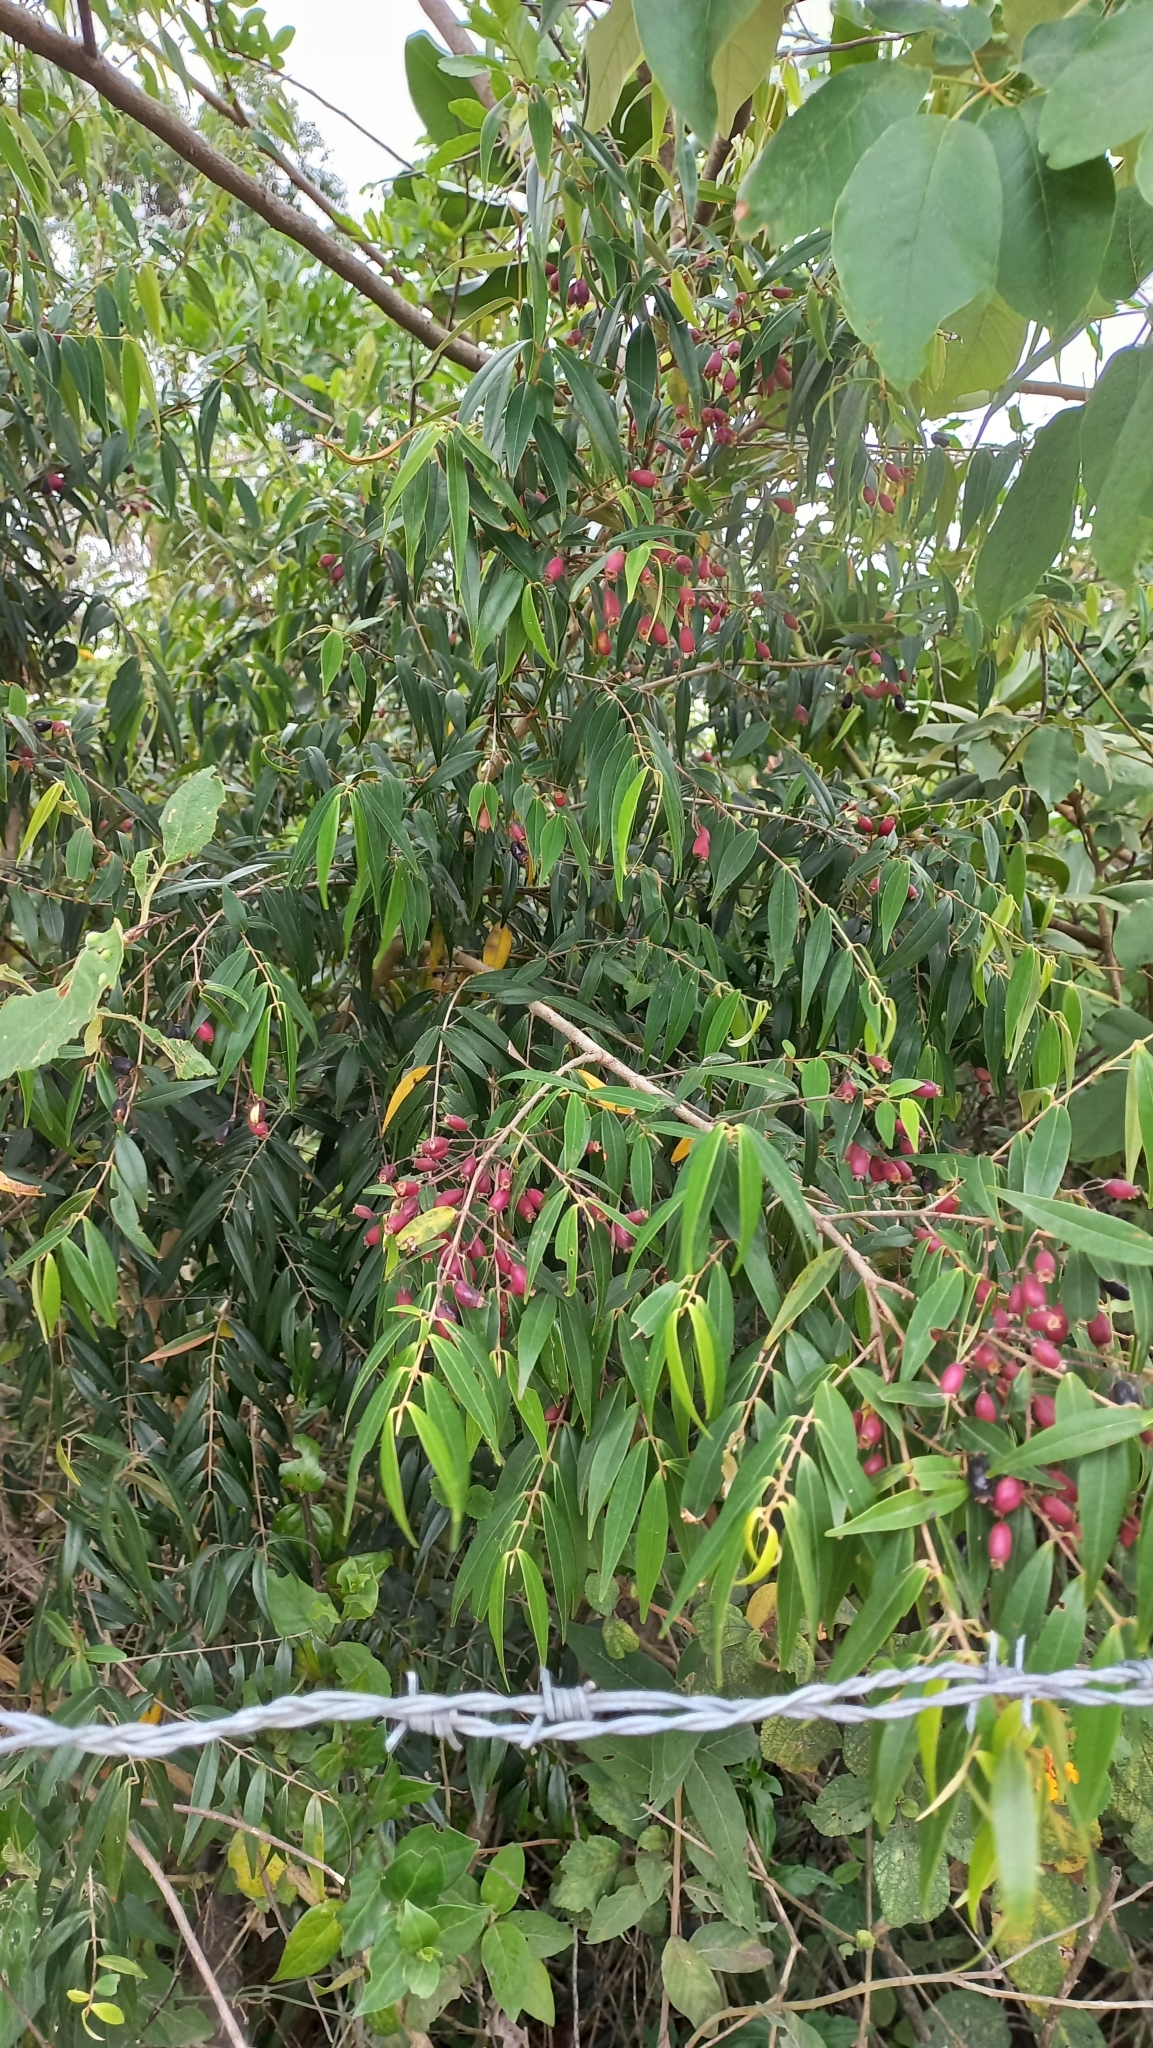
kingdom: Plantae
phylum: Tracheophyta
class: Magnoliopsida
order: Myrtales
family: Myrtaceae
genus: Myrcia
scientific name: Myrcia splendens
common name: Surinam cherry
